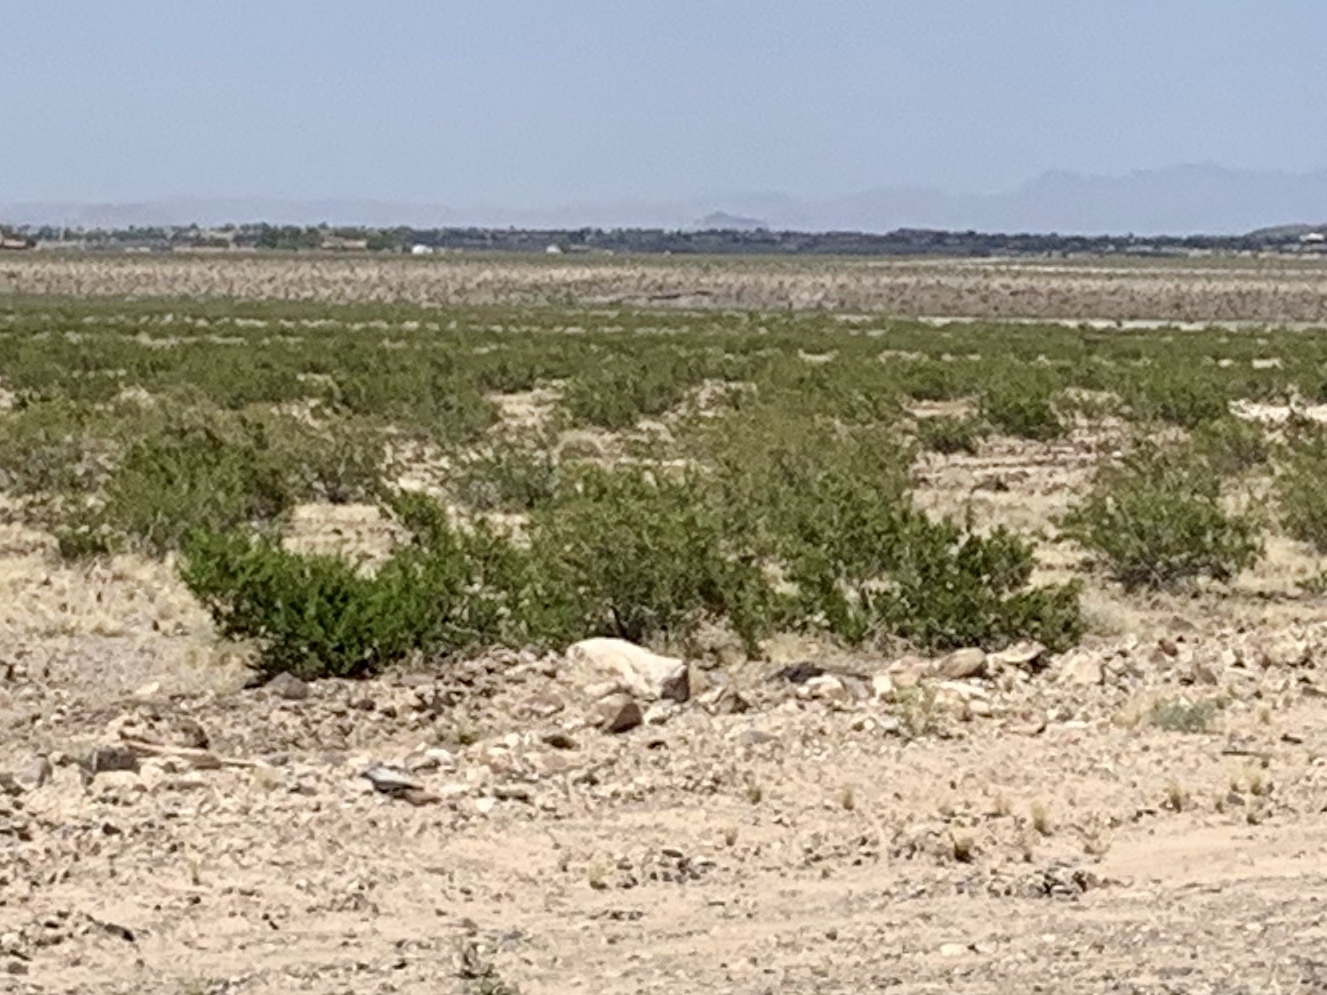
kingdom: Plantae
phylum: Tracheophyta
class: Magnoliopsida
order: Zygophyllales
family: Zygophyllaceae
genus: Larrea
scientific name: Larrea tridentata
